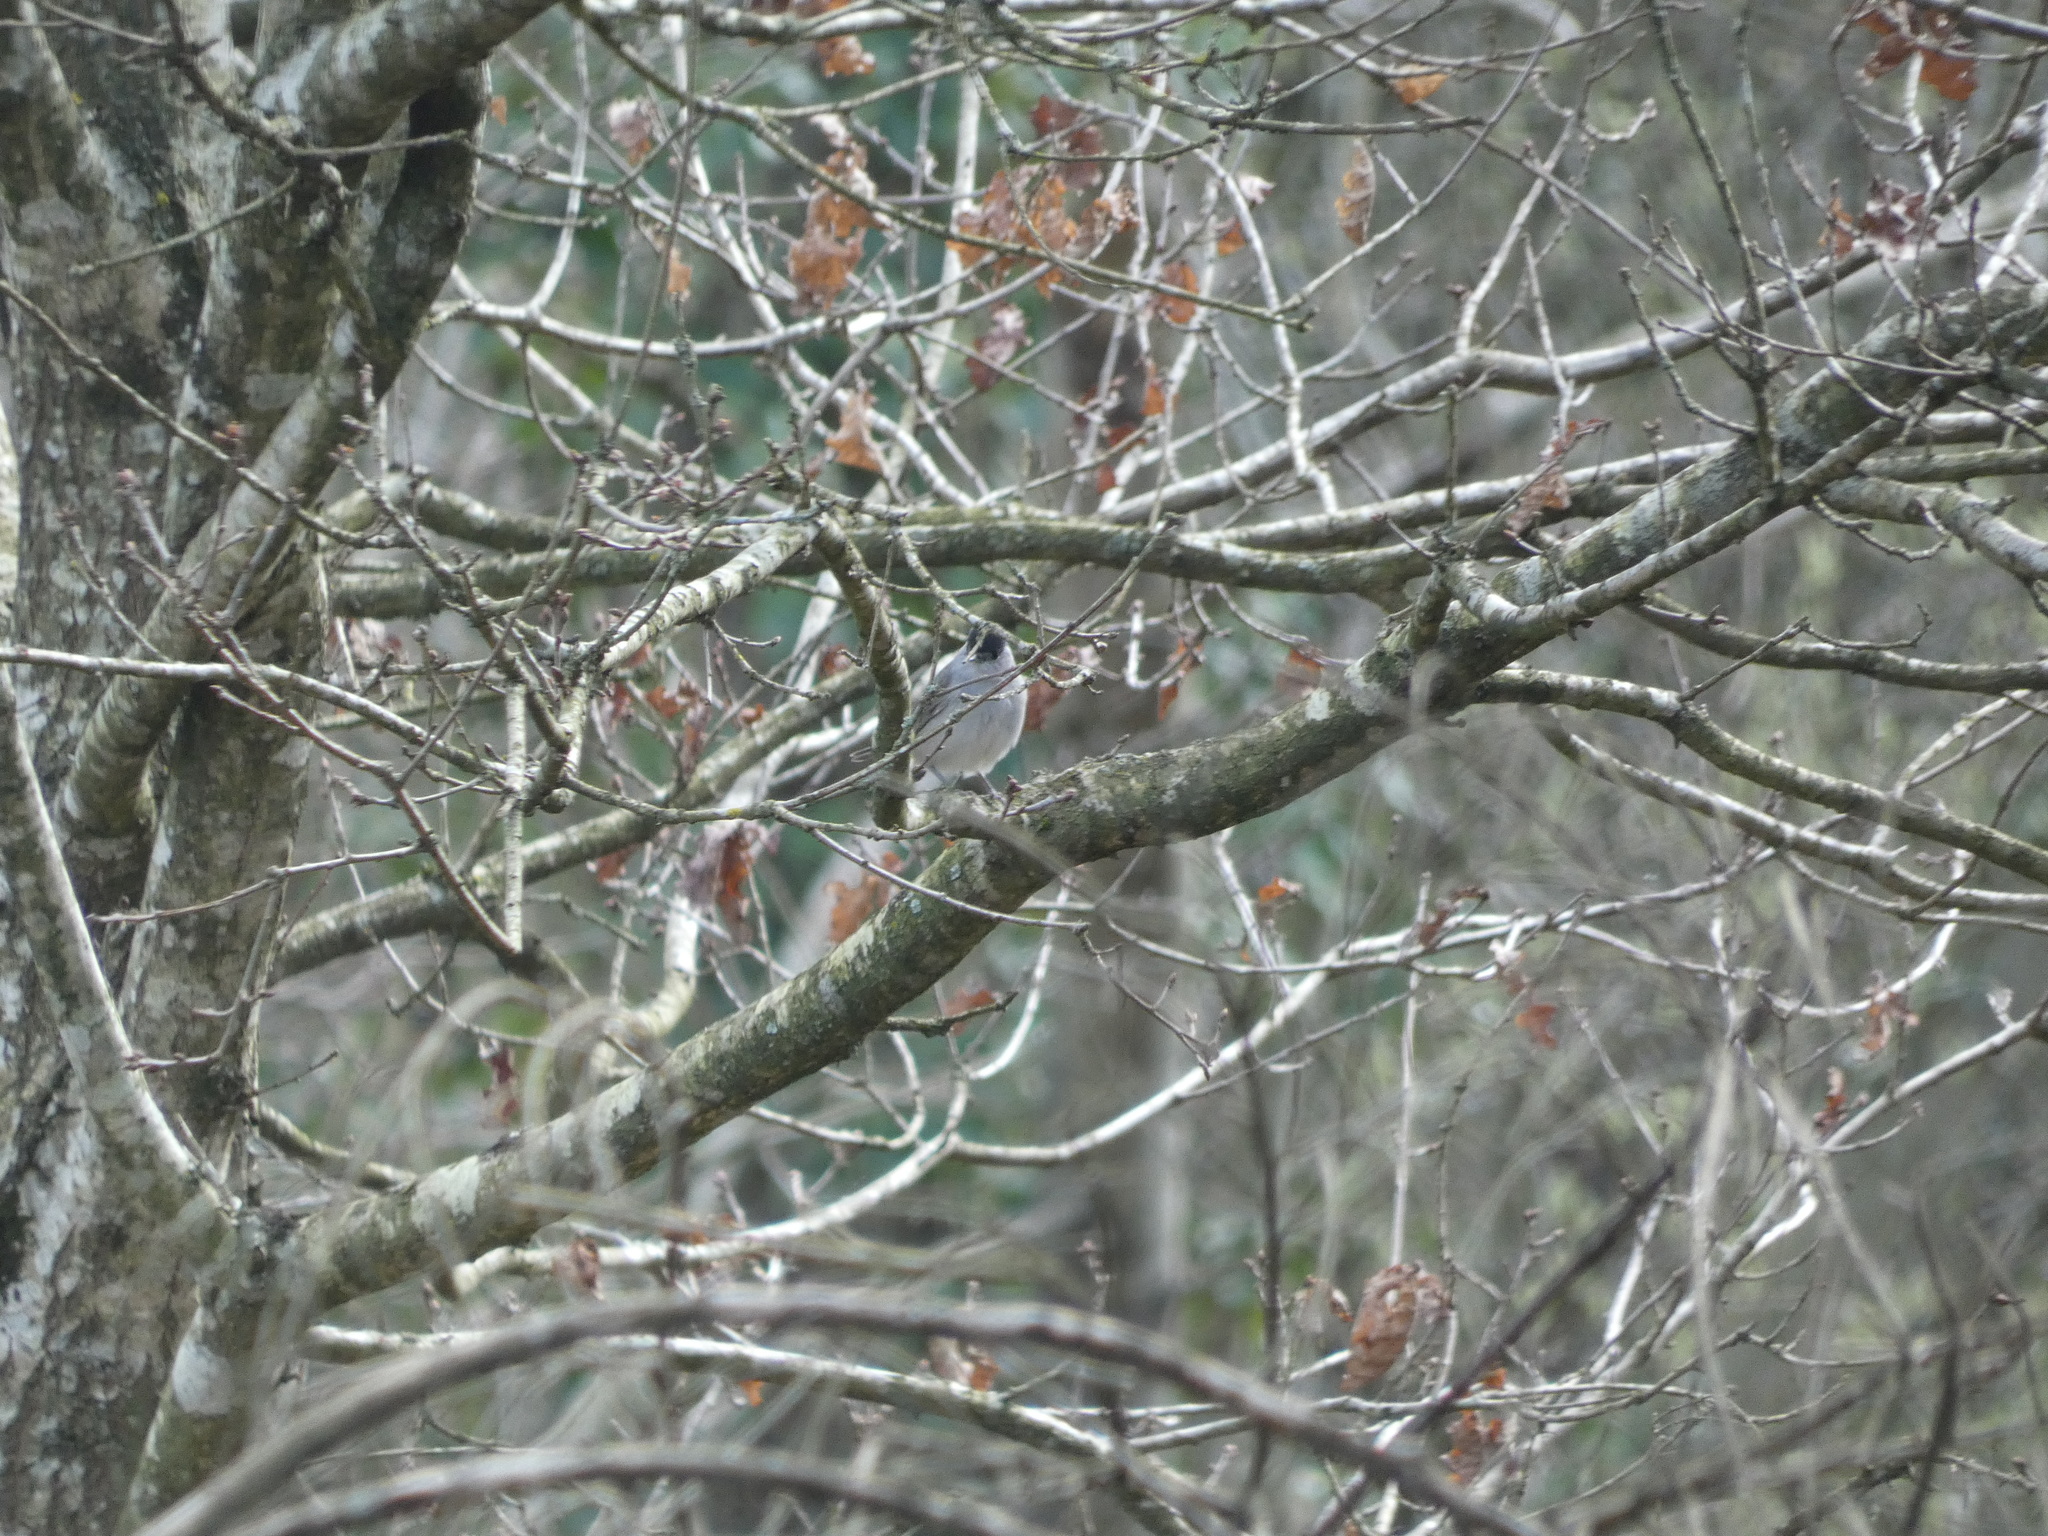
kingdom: Animalia
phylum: Chordata
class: Aves
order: Passeriformes
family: Sylviidae
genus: Sylvia
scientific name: Sylvia atricapilla
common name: Eurasian blackcap
